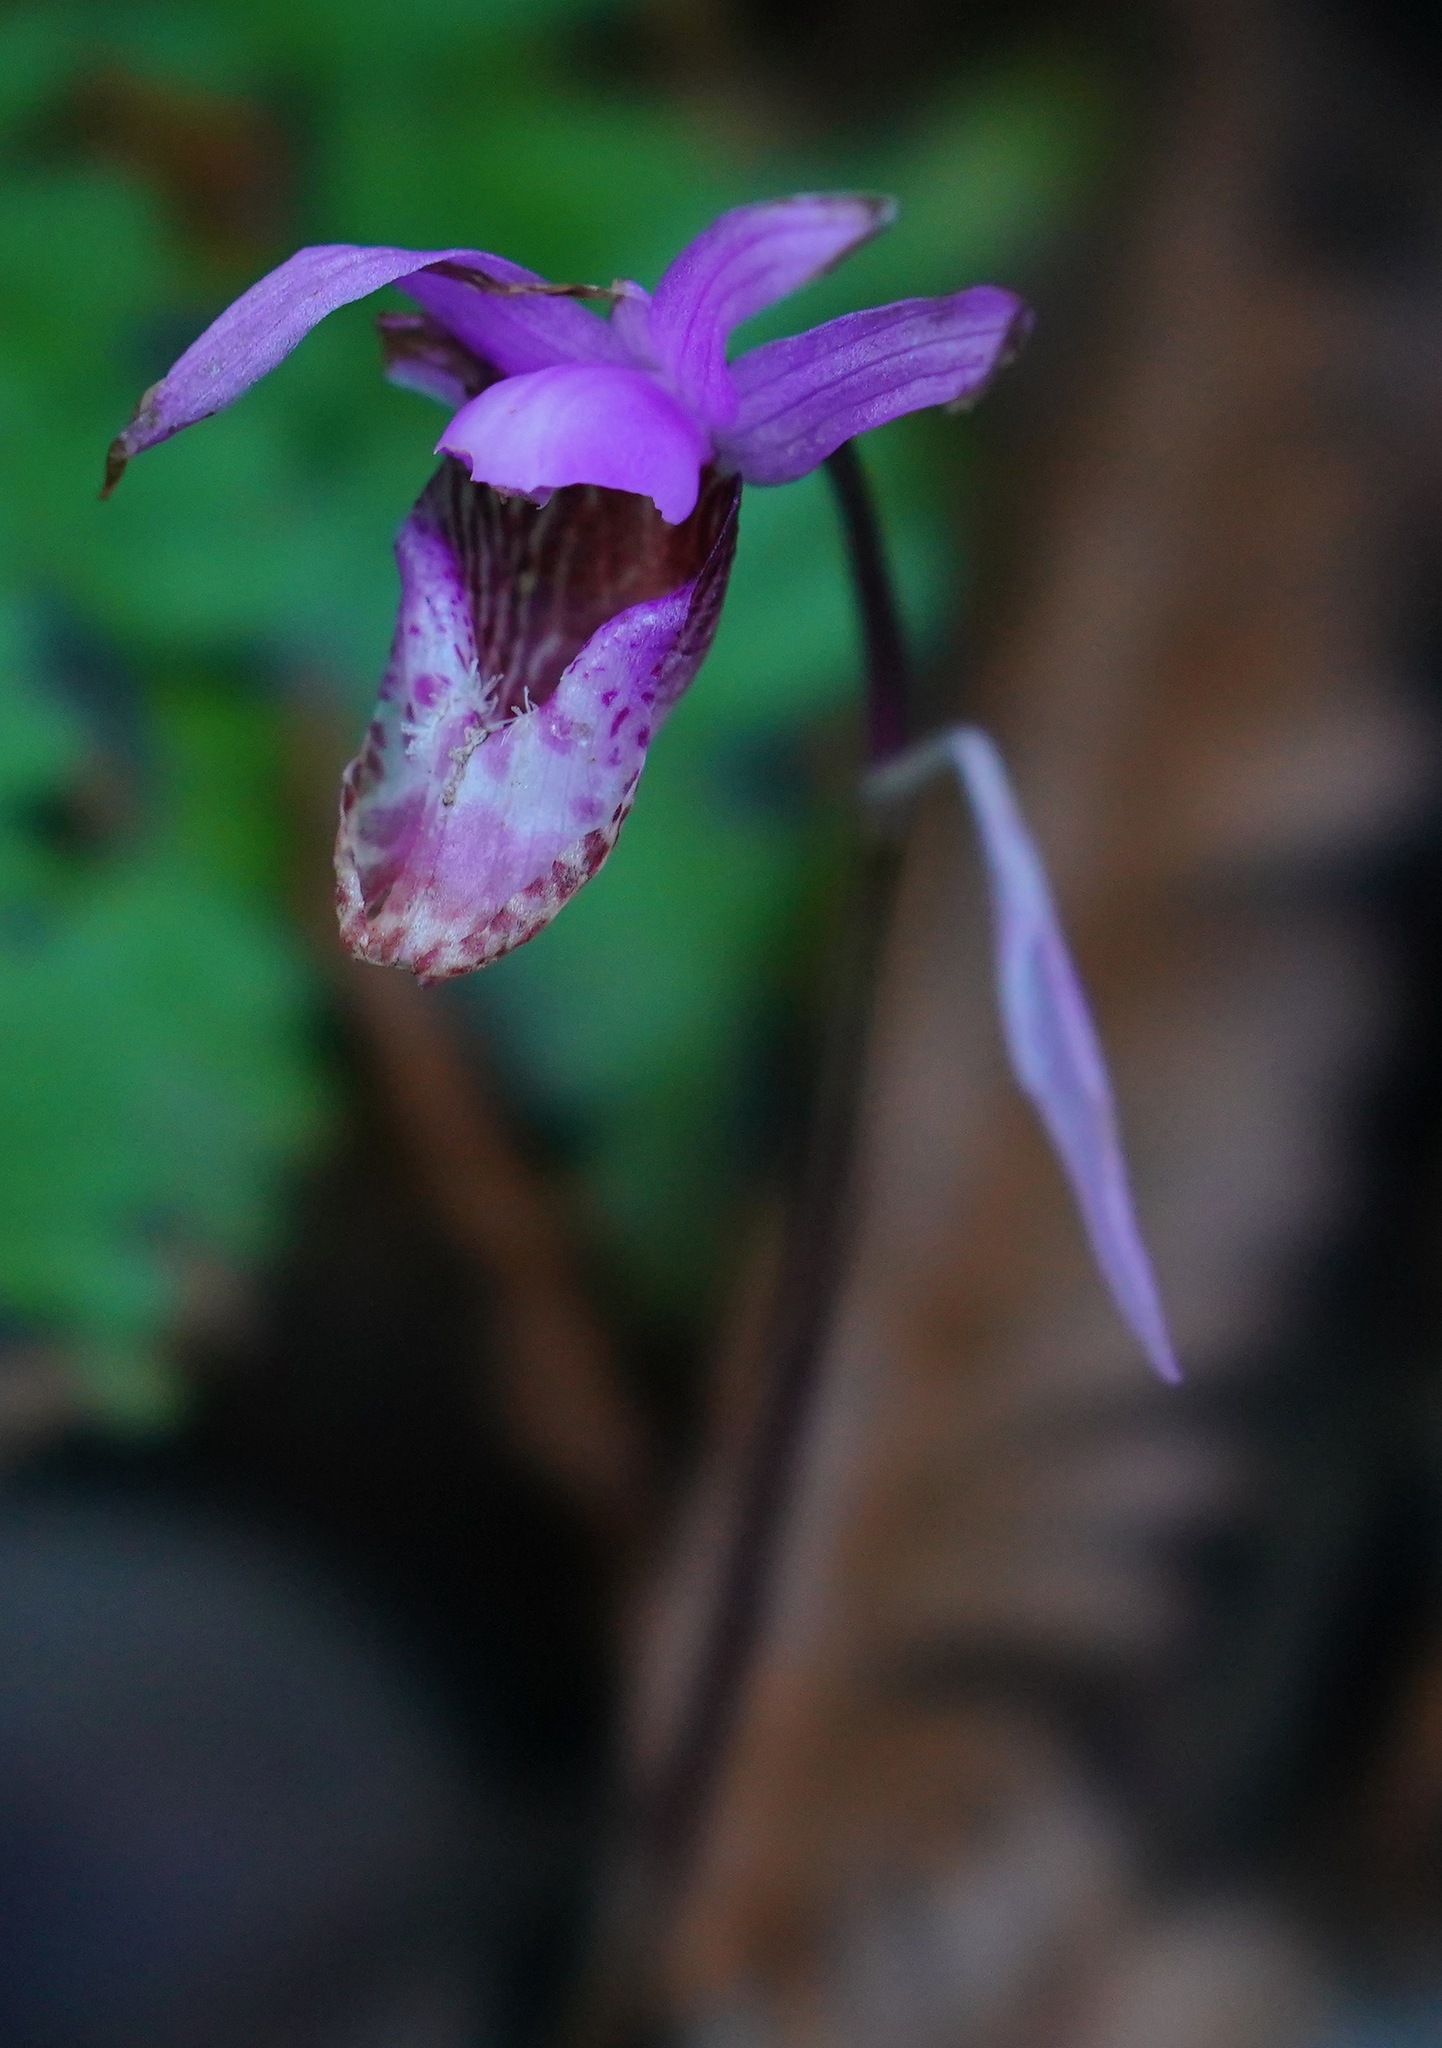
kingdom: Plantae
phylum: Tracheophyta
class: Liliopsida
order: Asparagales
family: Orchidaceae
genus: Calypso
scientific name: Calypso bulbosa
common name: Calypso
